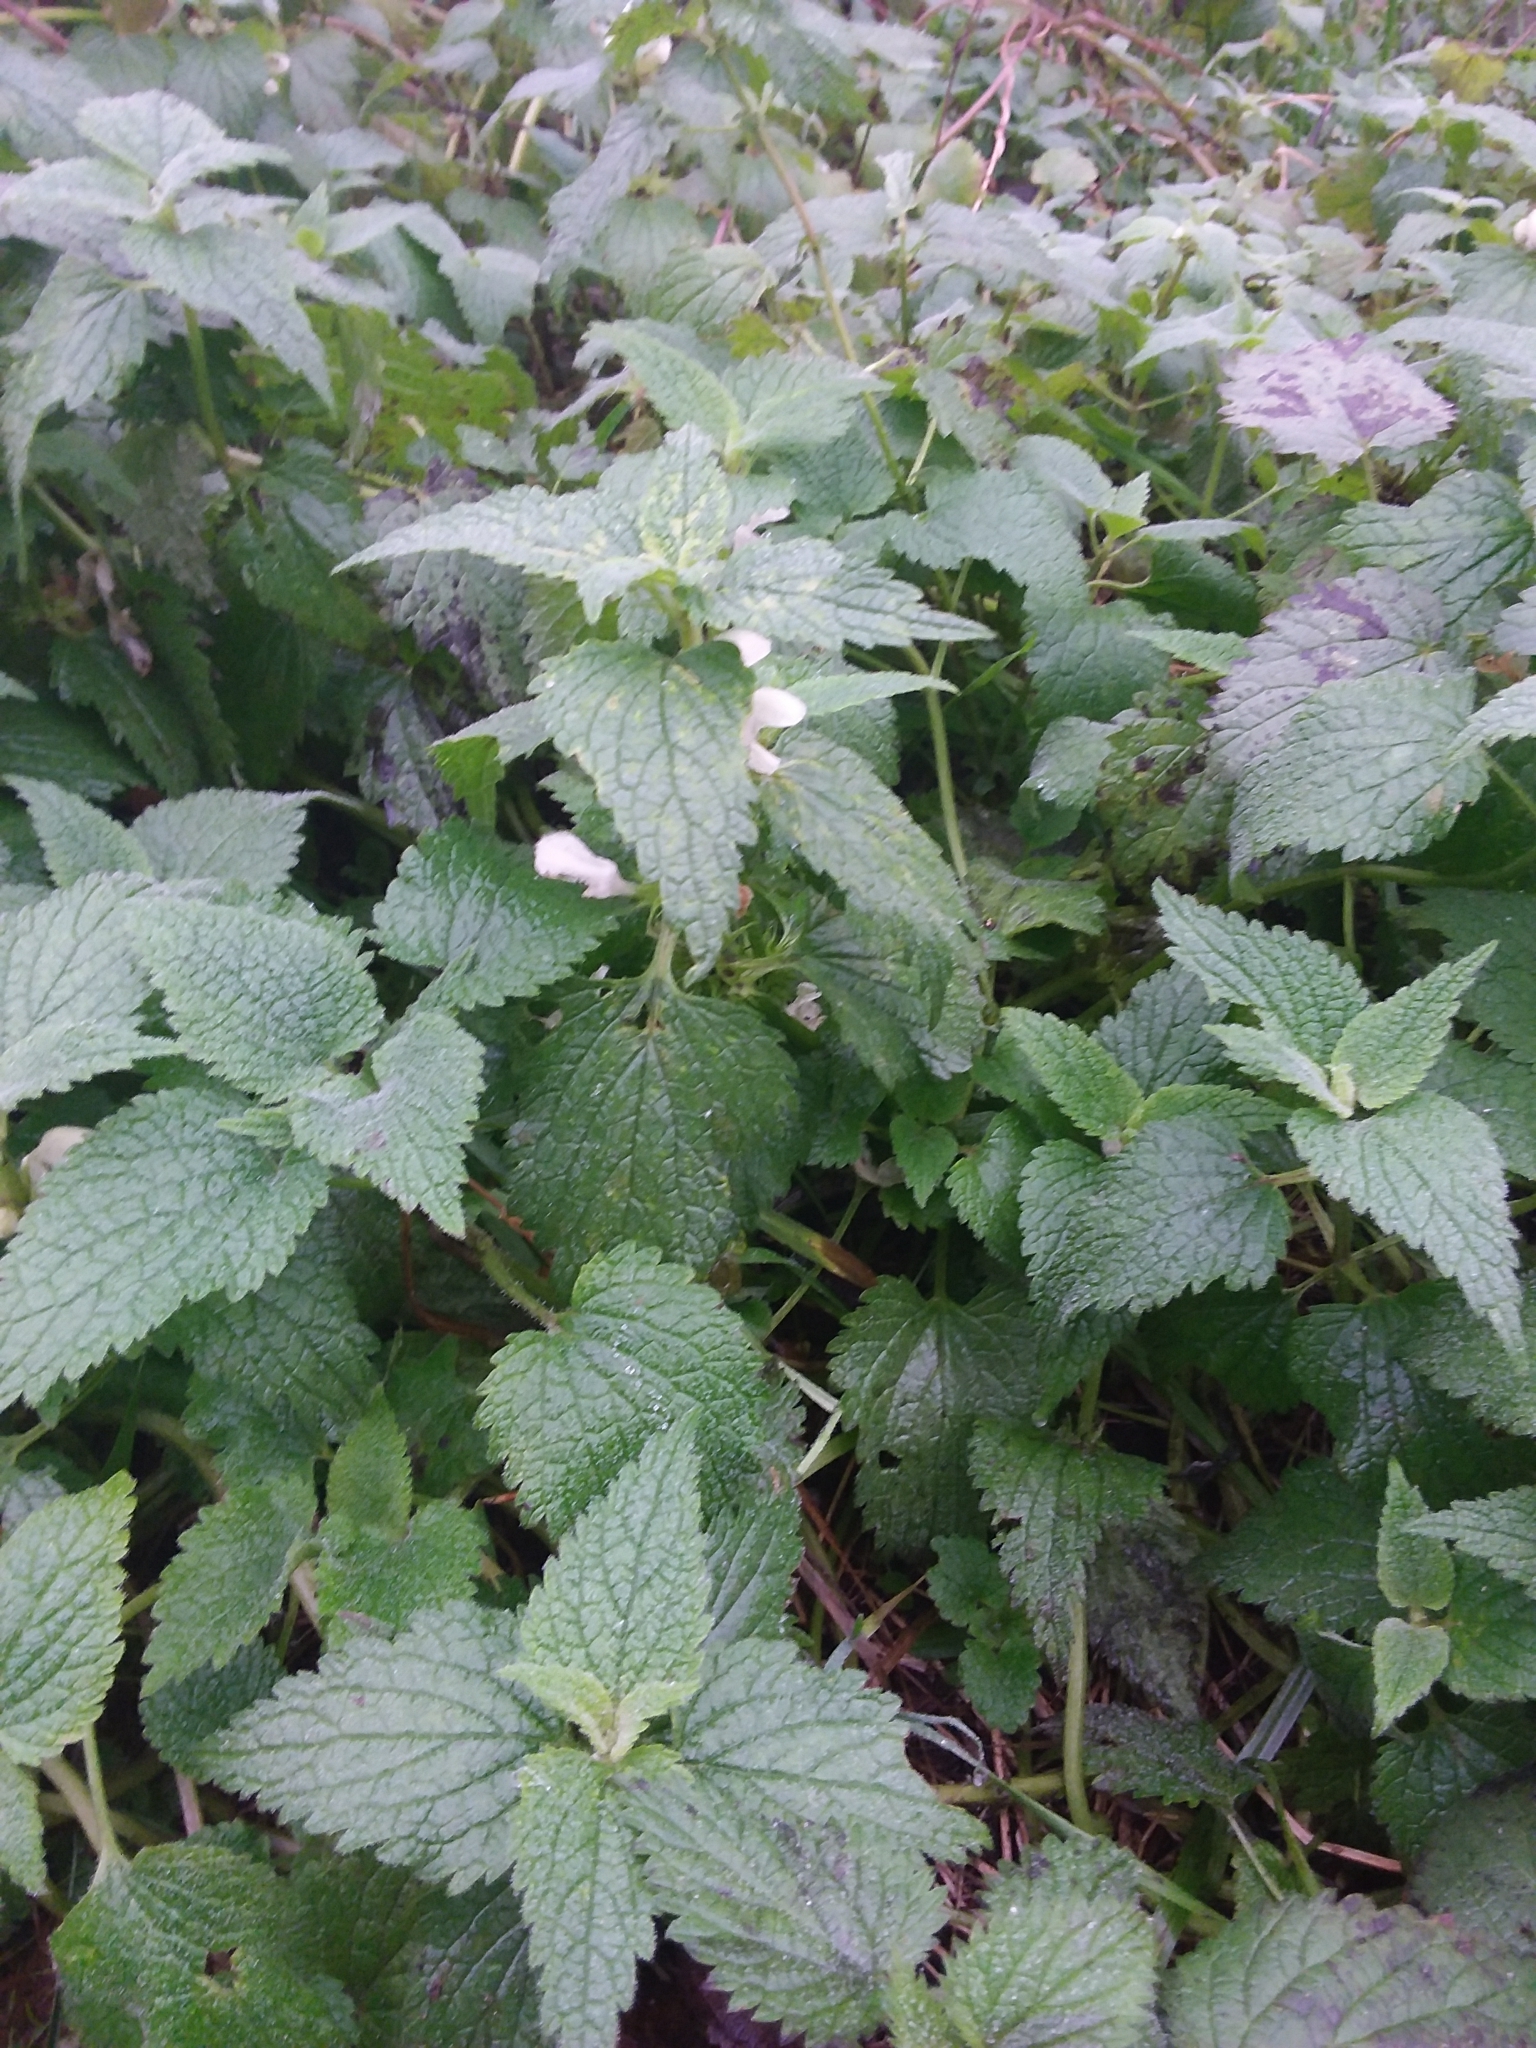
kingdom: Plantae
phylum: Tracheophyta
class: Magnoliopsida
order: Lamiales
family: Lamiaceae
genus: Lamium
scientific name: Lamium album
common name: White dead-nettle
